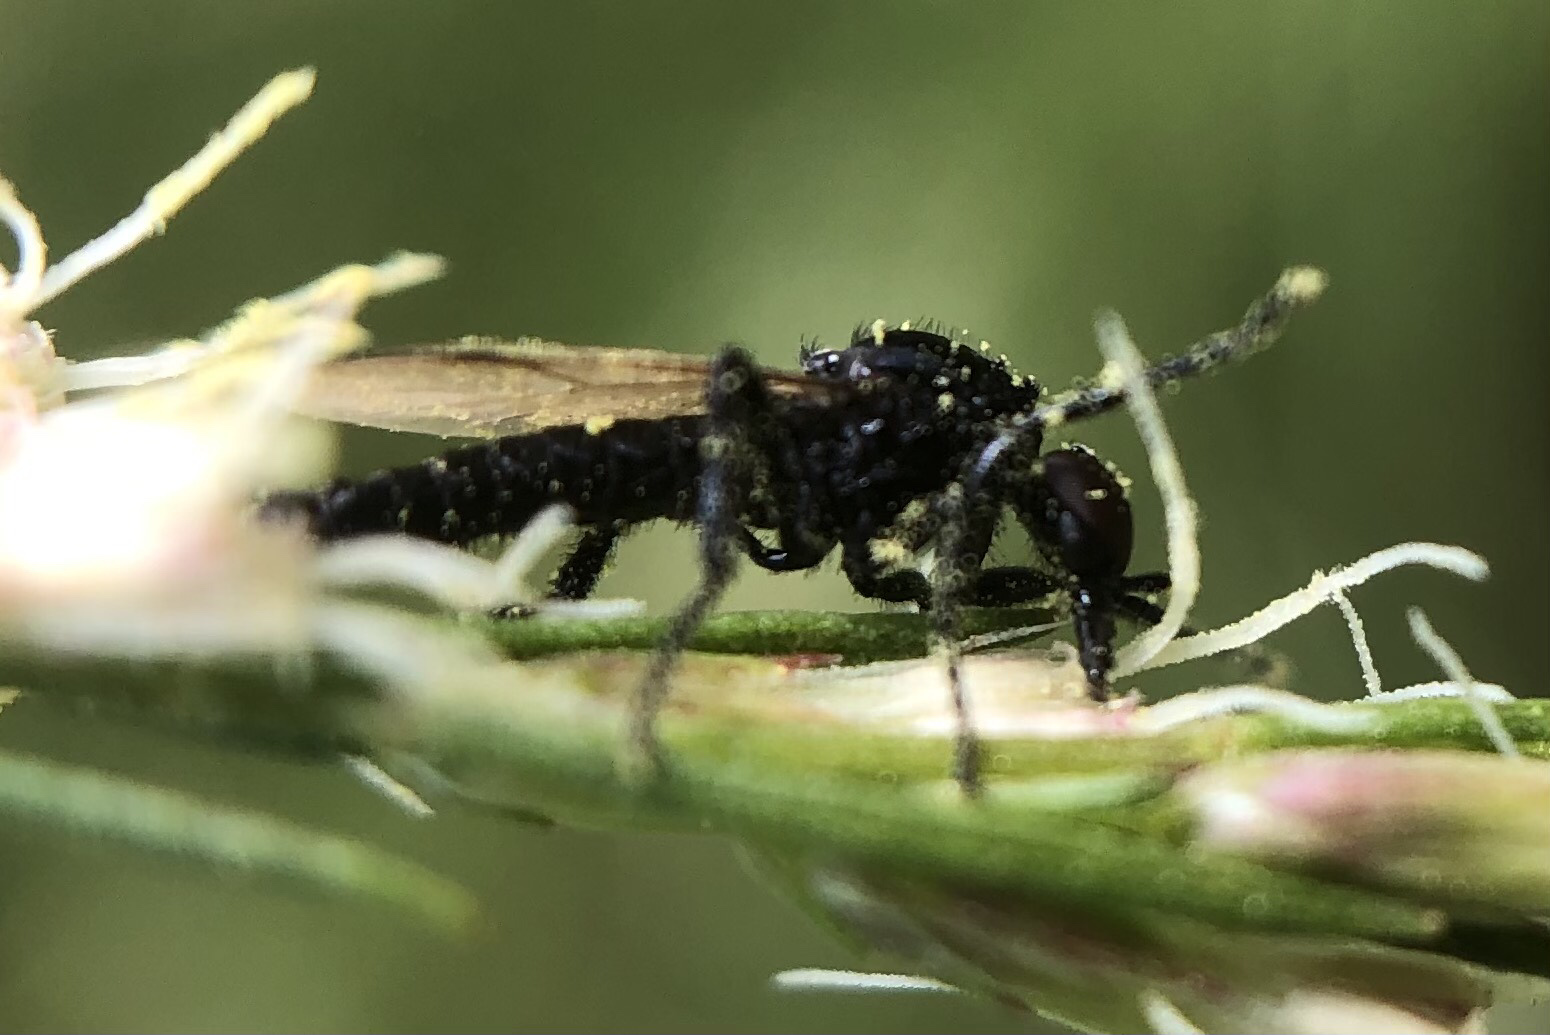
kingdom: Animalia
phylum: Arthropoda
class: Insecta
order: Diptera
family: Bibionidae
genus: Dilophus
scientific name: Dilophus
